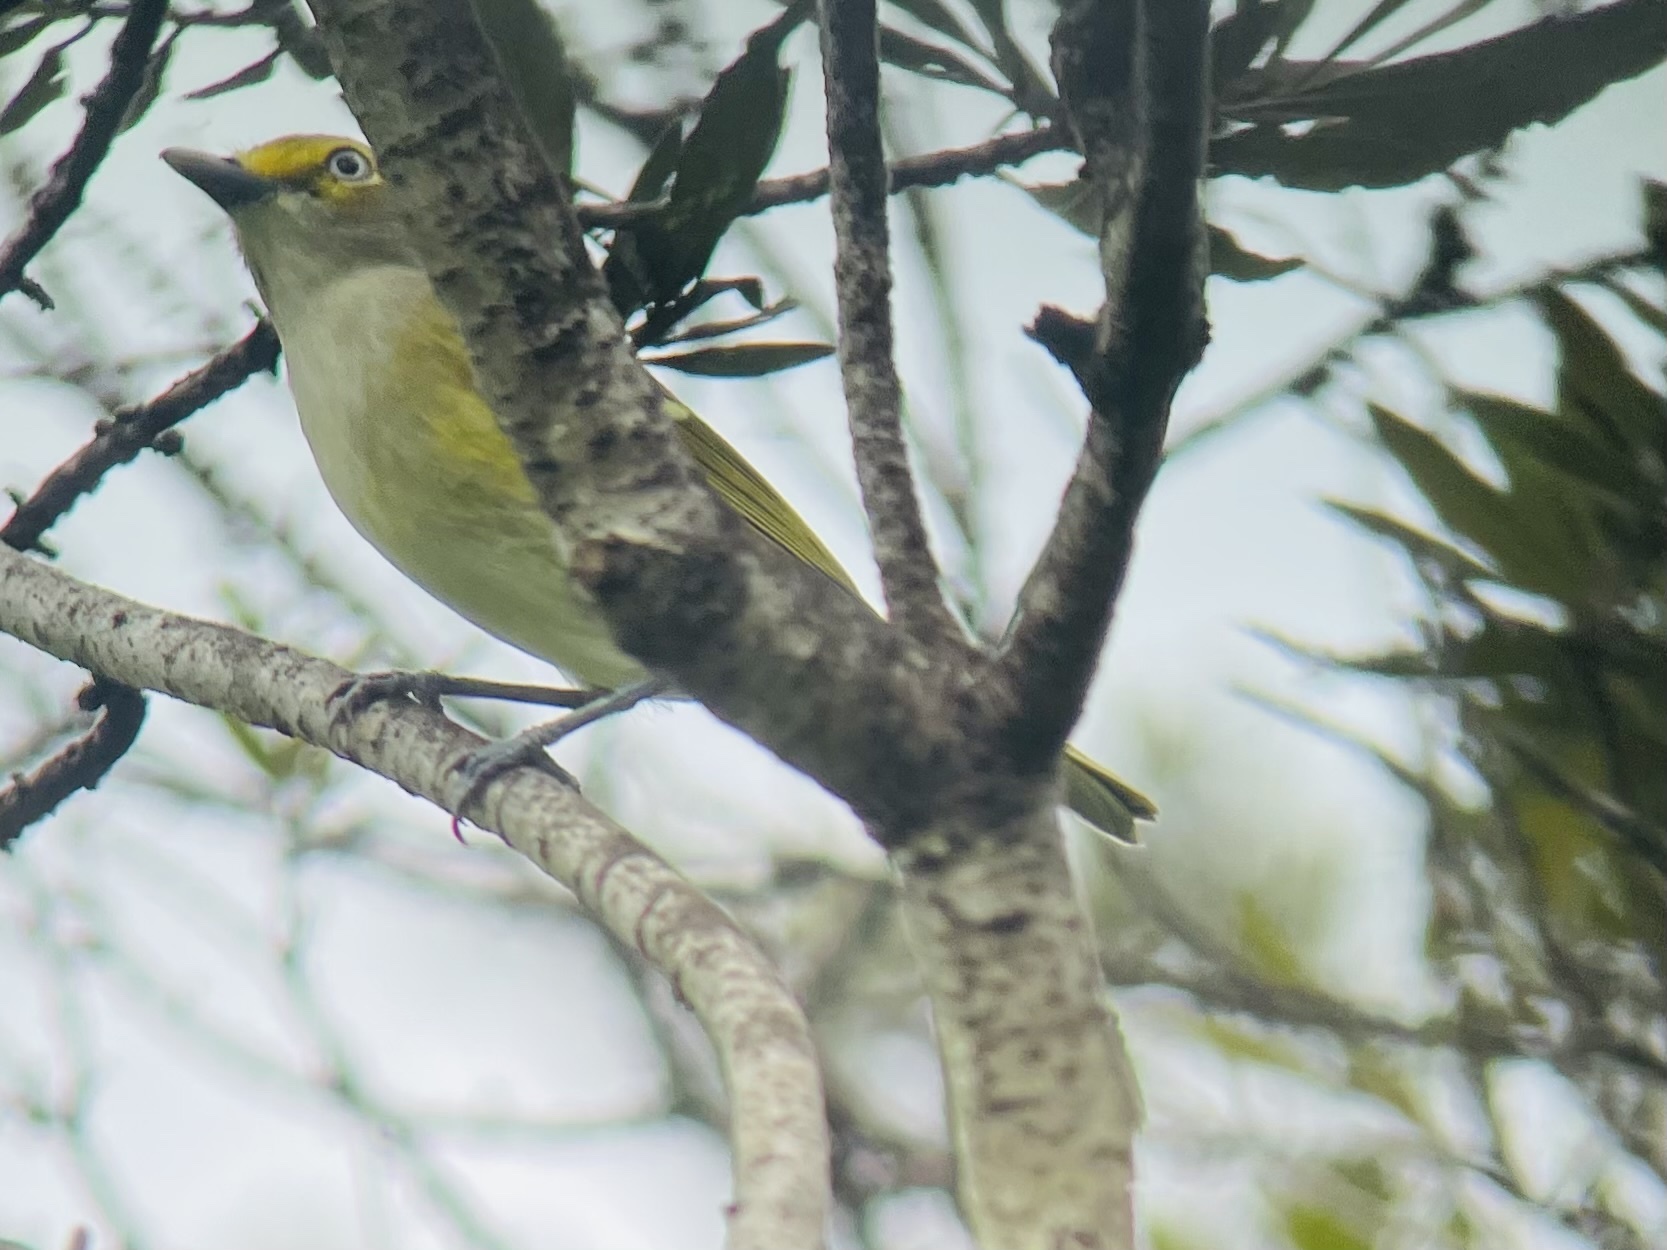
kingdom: Animalia
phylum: Chordata
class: Aves
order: Passeriformes
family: Vireonidae
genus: Vireo
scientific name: Vireo griseus
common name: White-eyed vireo
